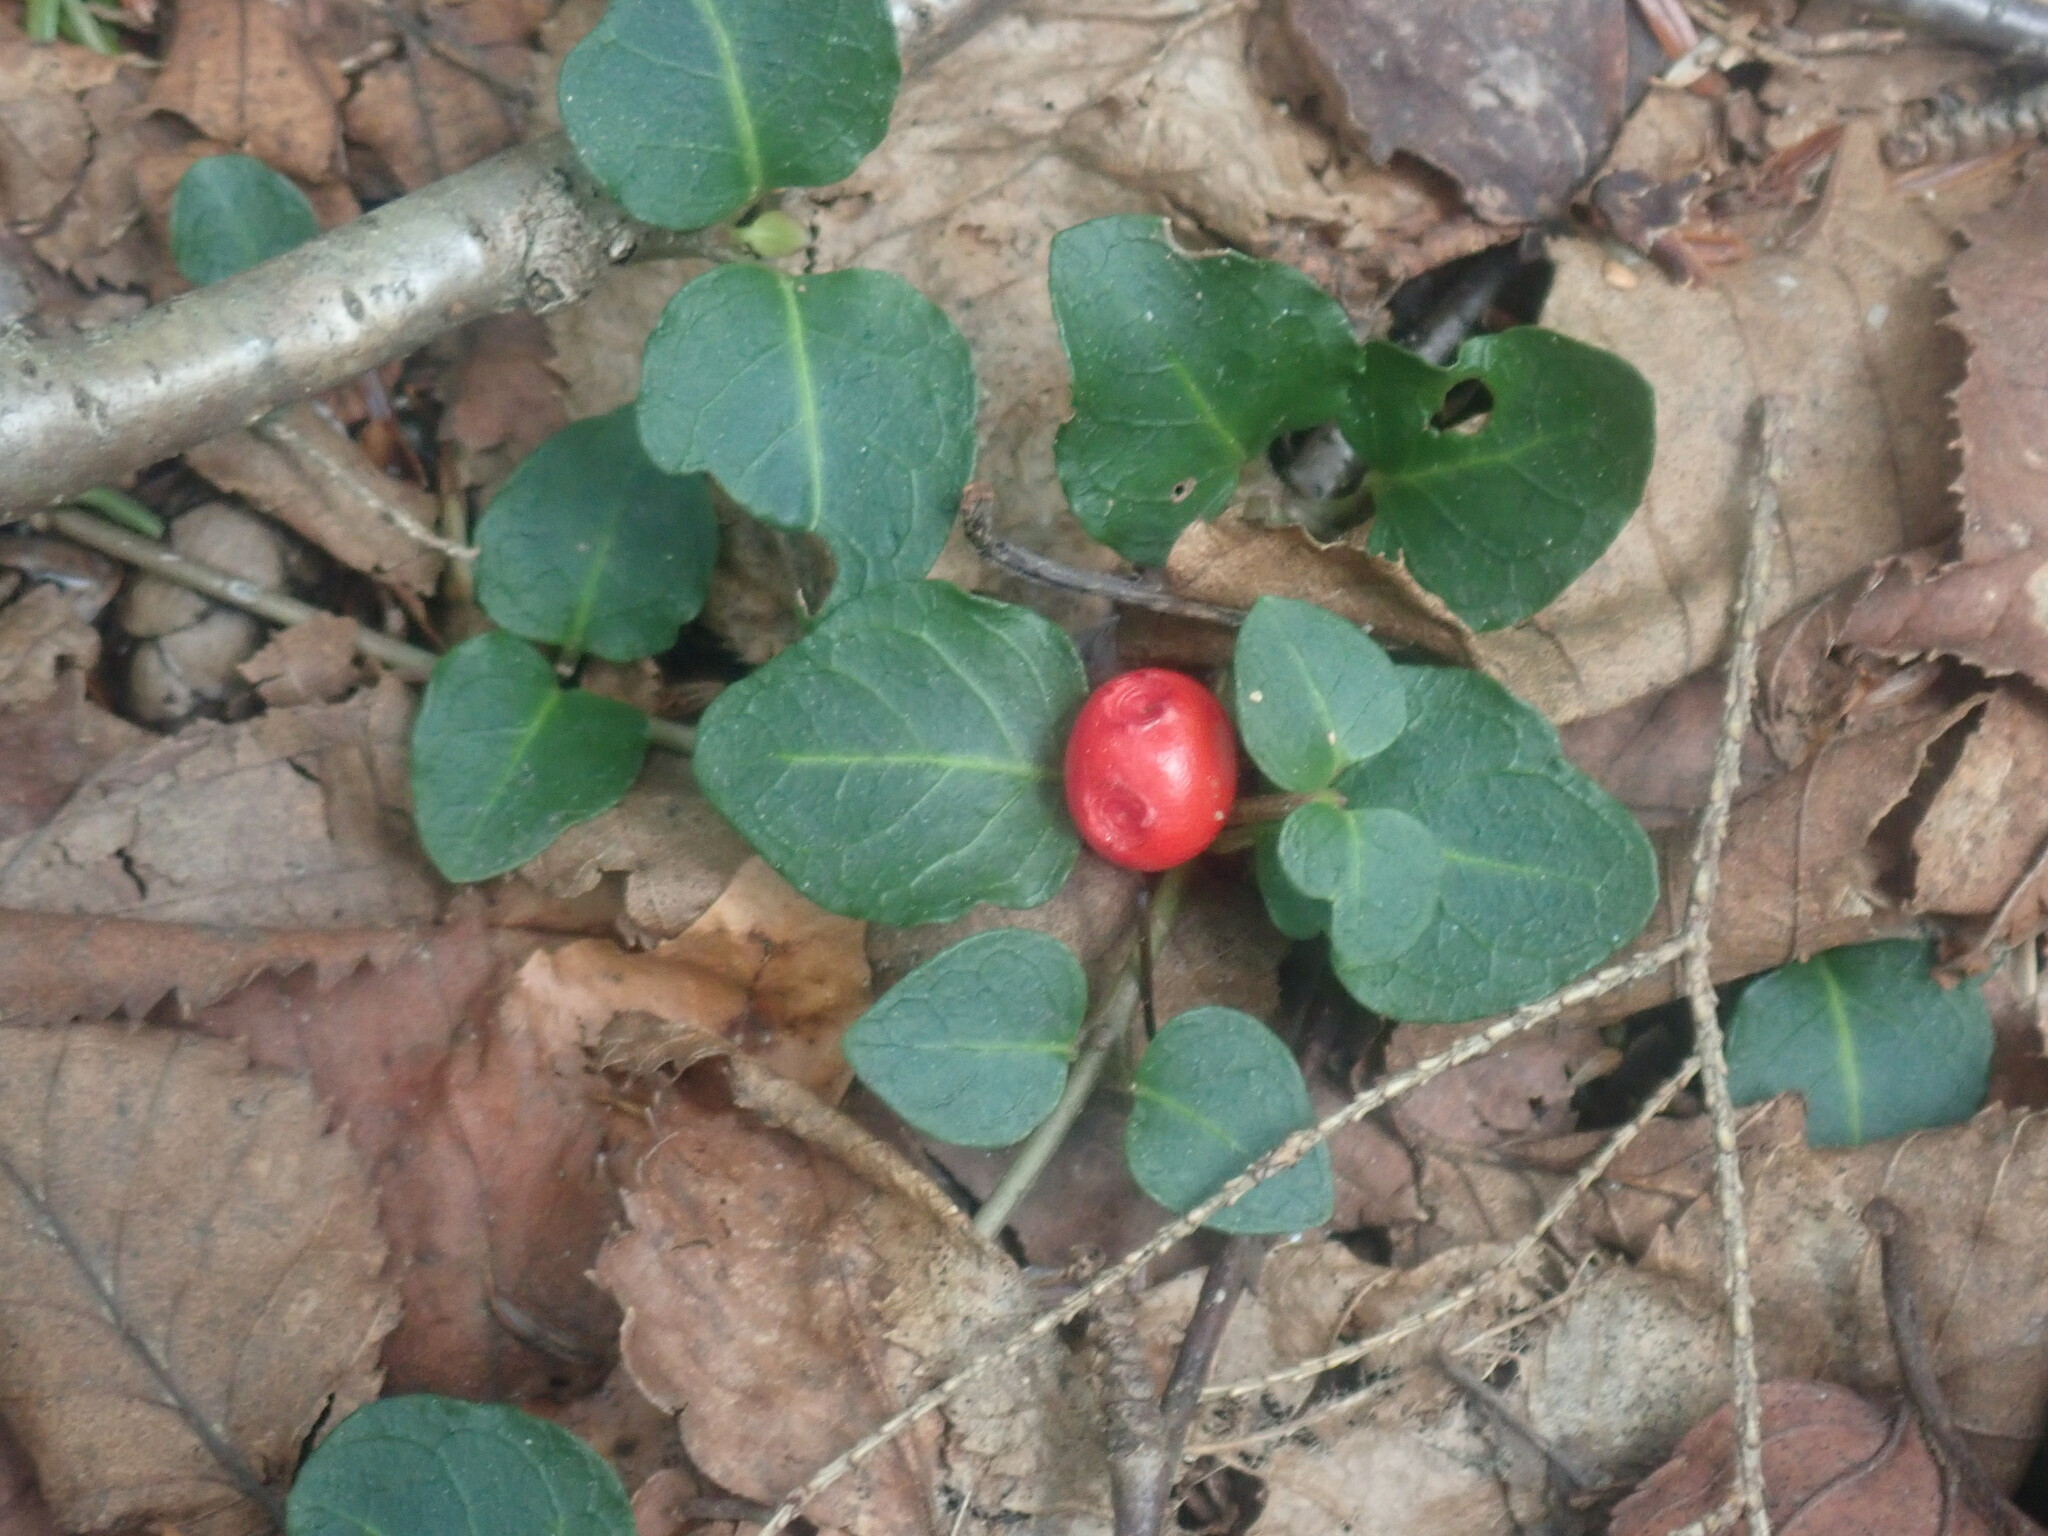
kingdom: Plantae
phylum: Tracheophyta
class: Magnoliopsida
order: Gentianales
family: Rubiaceae
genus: Mitchella
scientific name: Mitchella repens
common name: Partridge-berry
